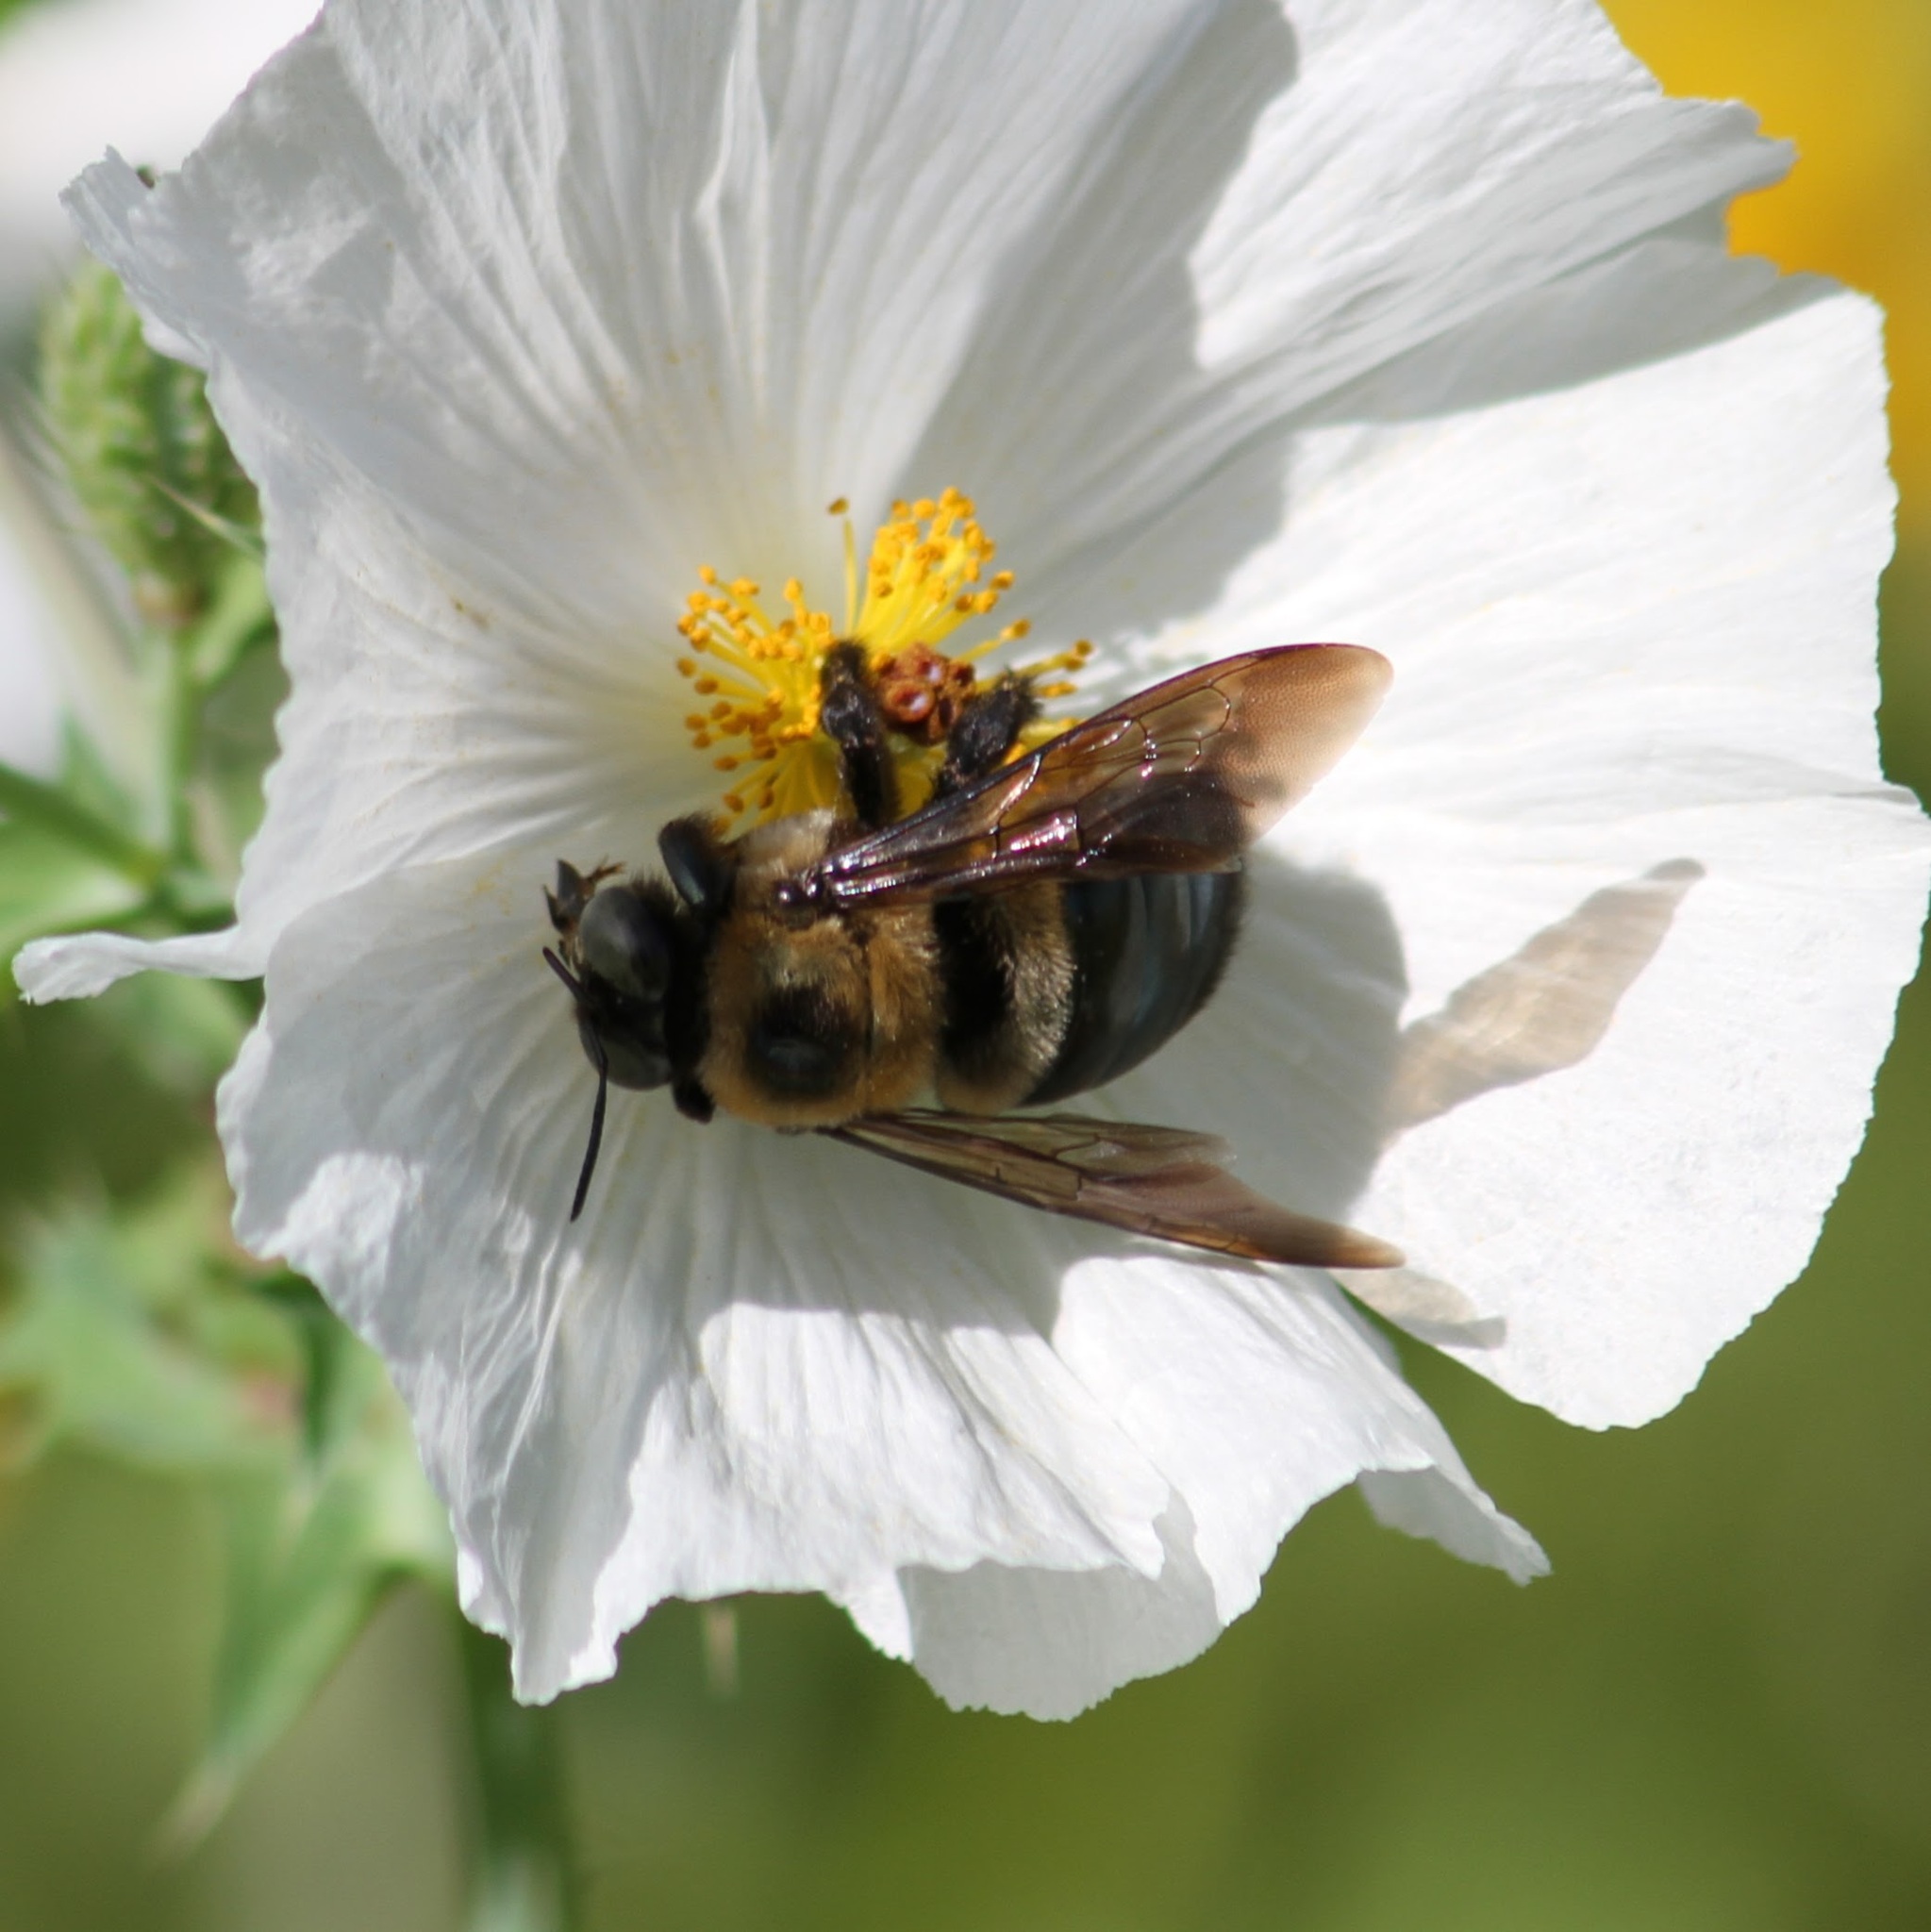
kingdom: Animalia
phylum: Arthropoda
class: Insecta
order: Hymenoptera
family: Apidae
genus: Xylocopa
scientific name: Xylocopa virginica
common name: Carpenter bee
